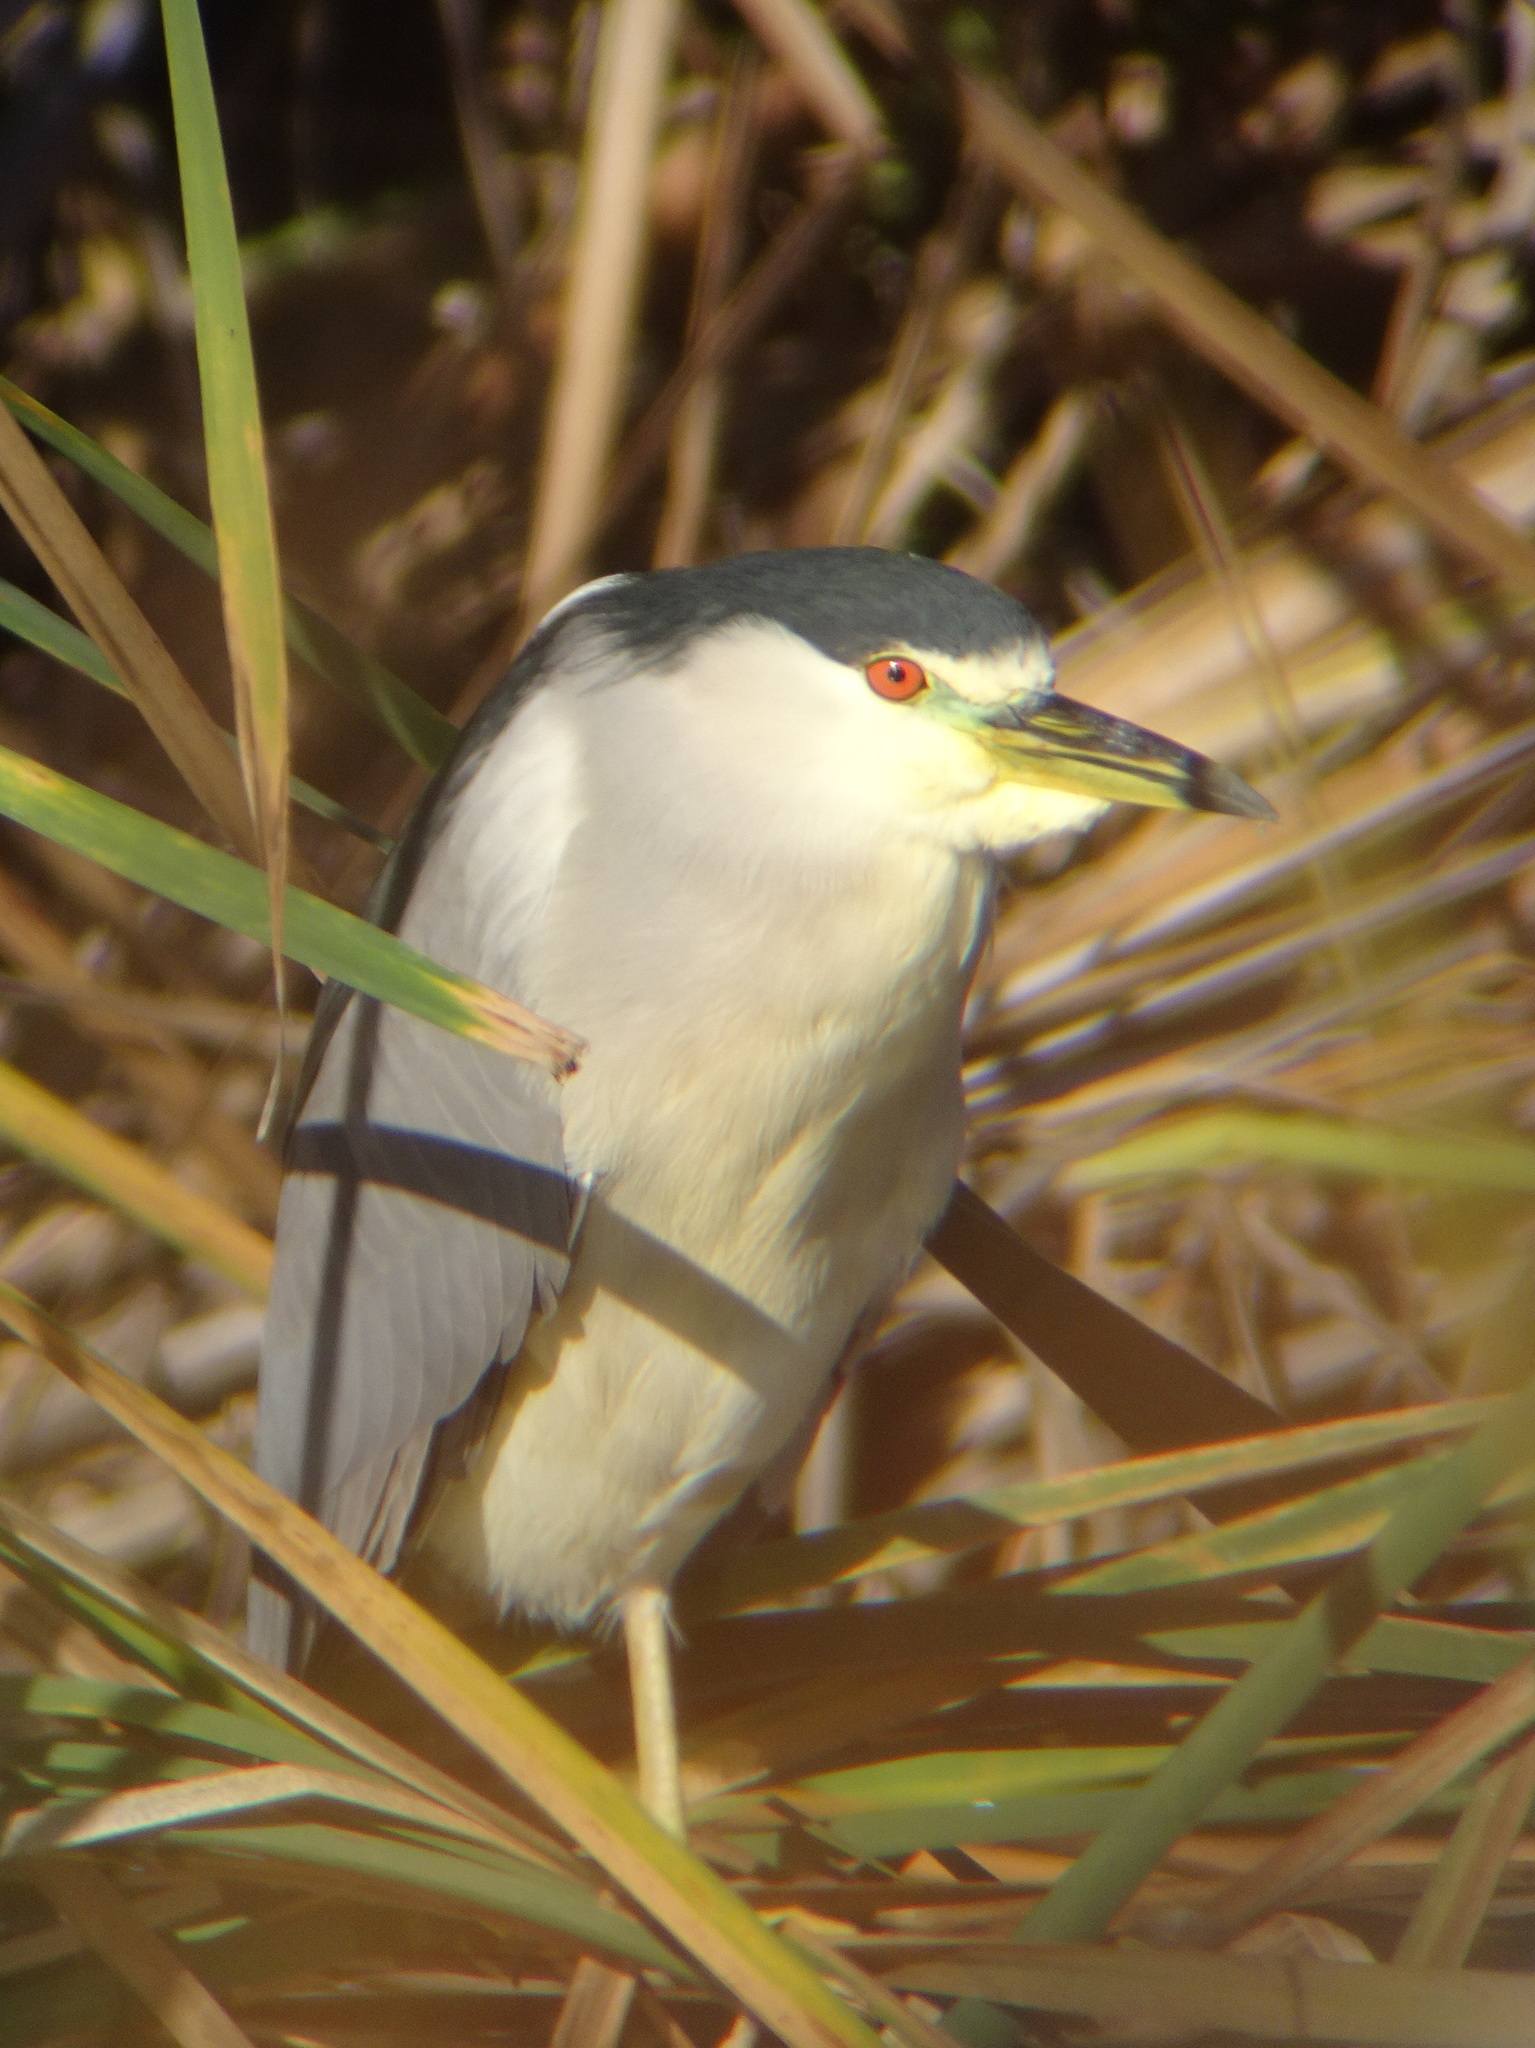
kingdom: Animalia
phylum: Chordata
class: Aves
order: Pelecaniformes
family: Ardeidae
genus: Nycticorax
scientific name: Nycticorax nycticorax
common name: Black-crowned night heron
